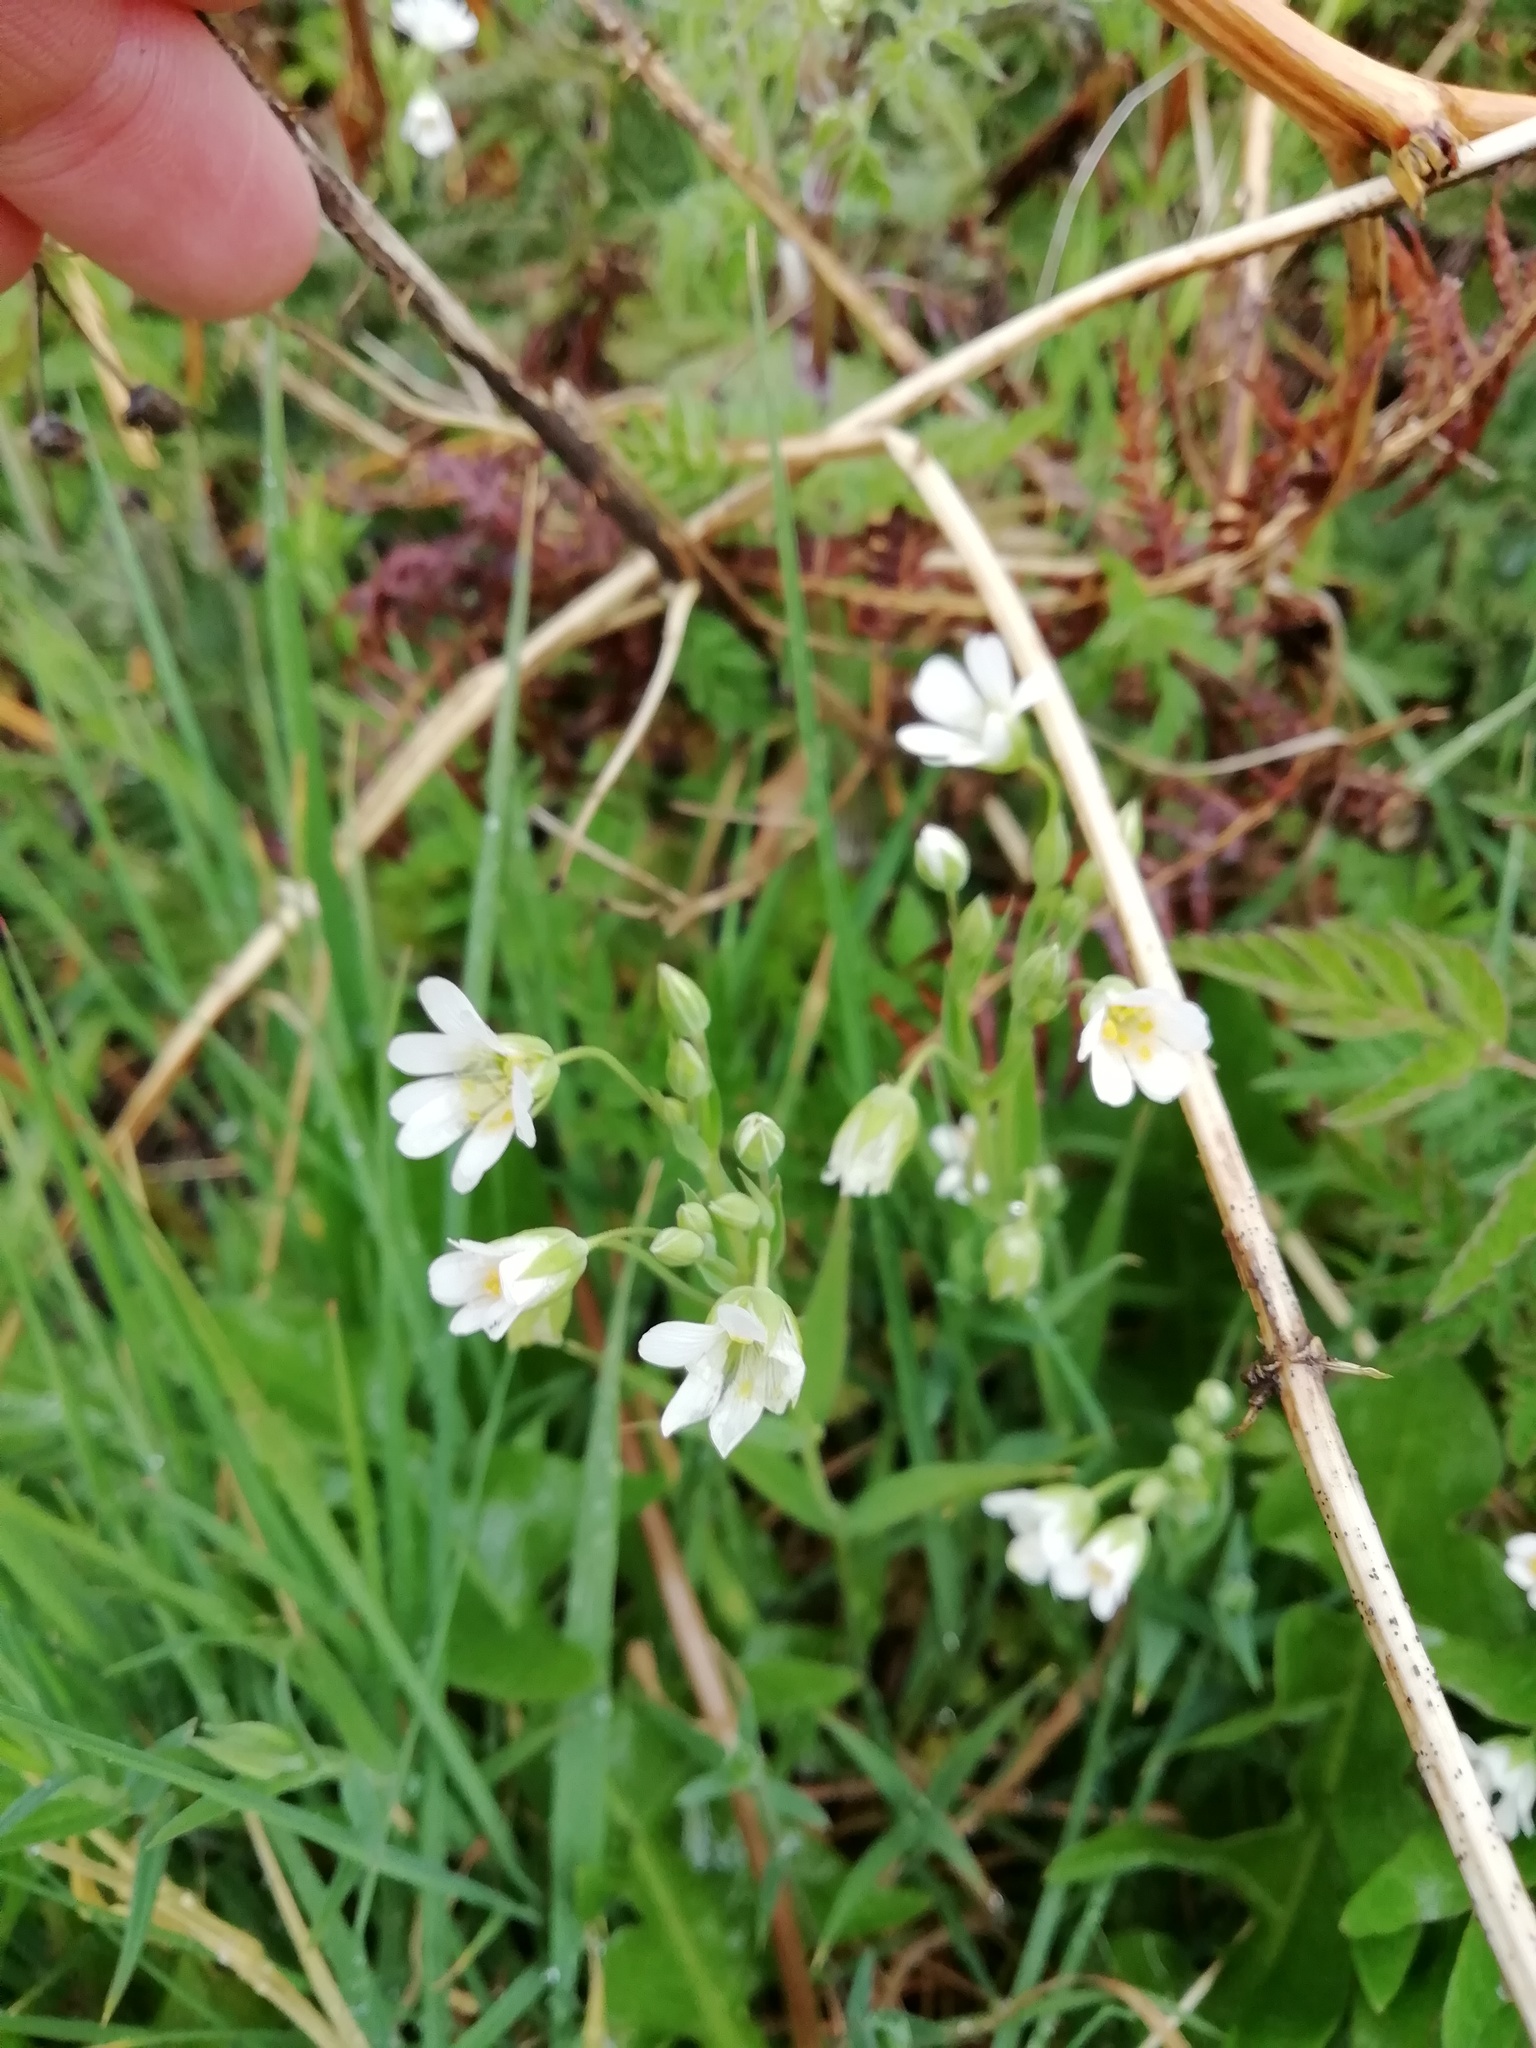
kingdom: Plantae
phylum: Tracheophyta
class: Magnoliopsida
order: Caryophyllales
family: Caryophyllaceae
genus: Rabelera
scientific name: Rabelera holostea
